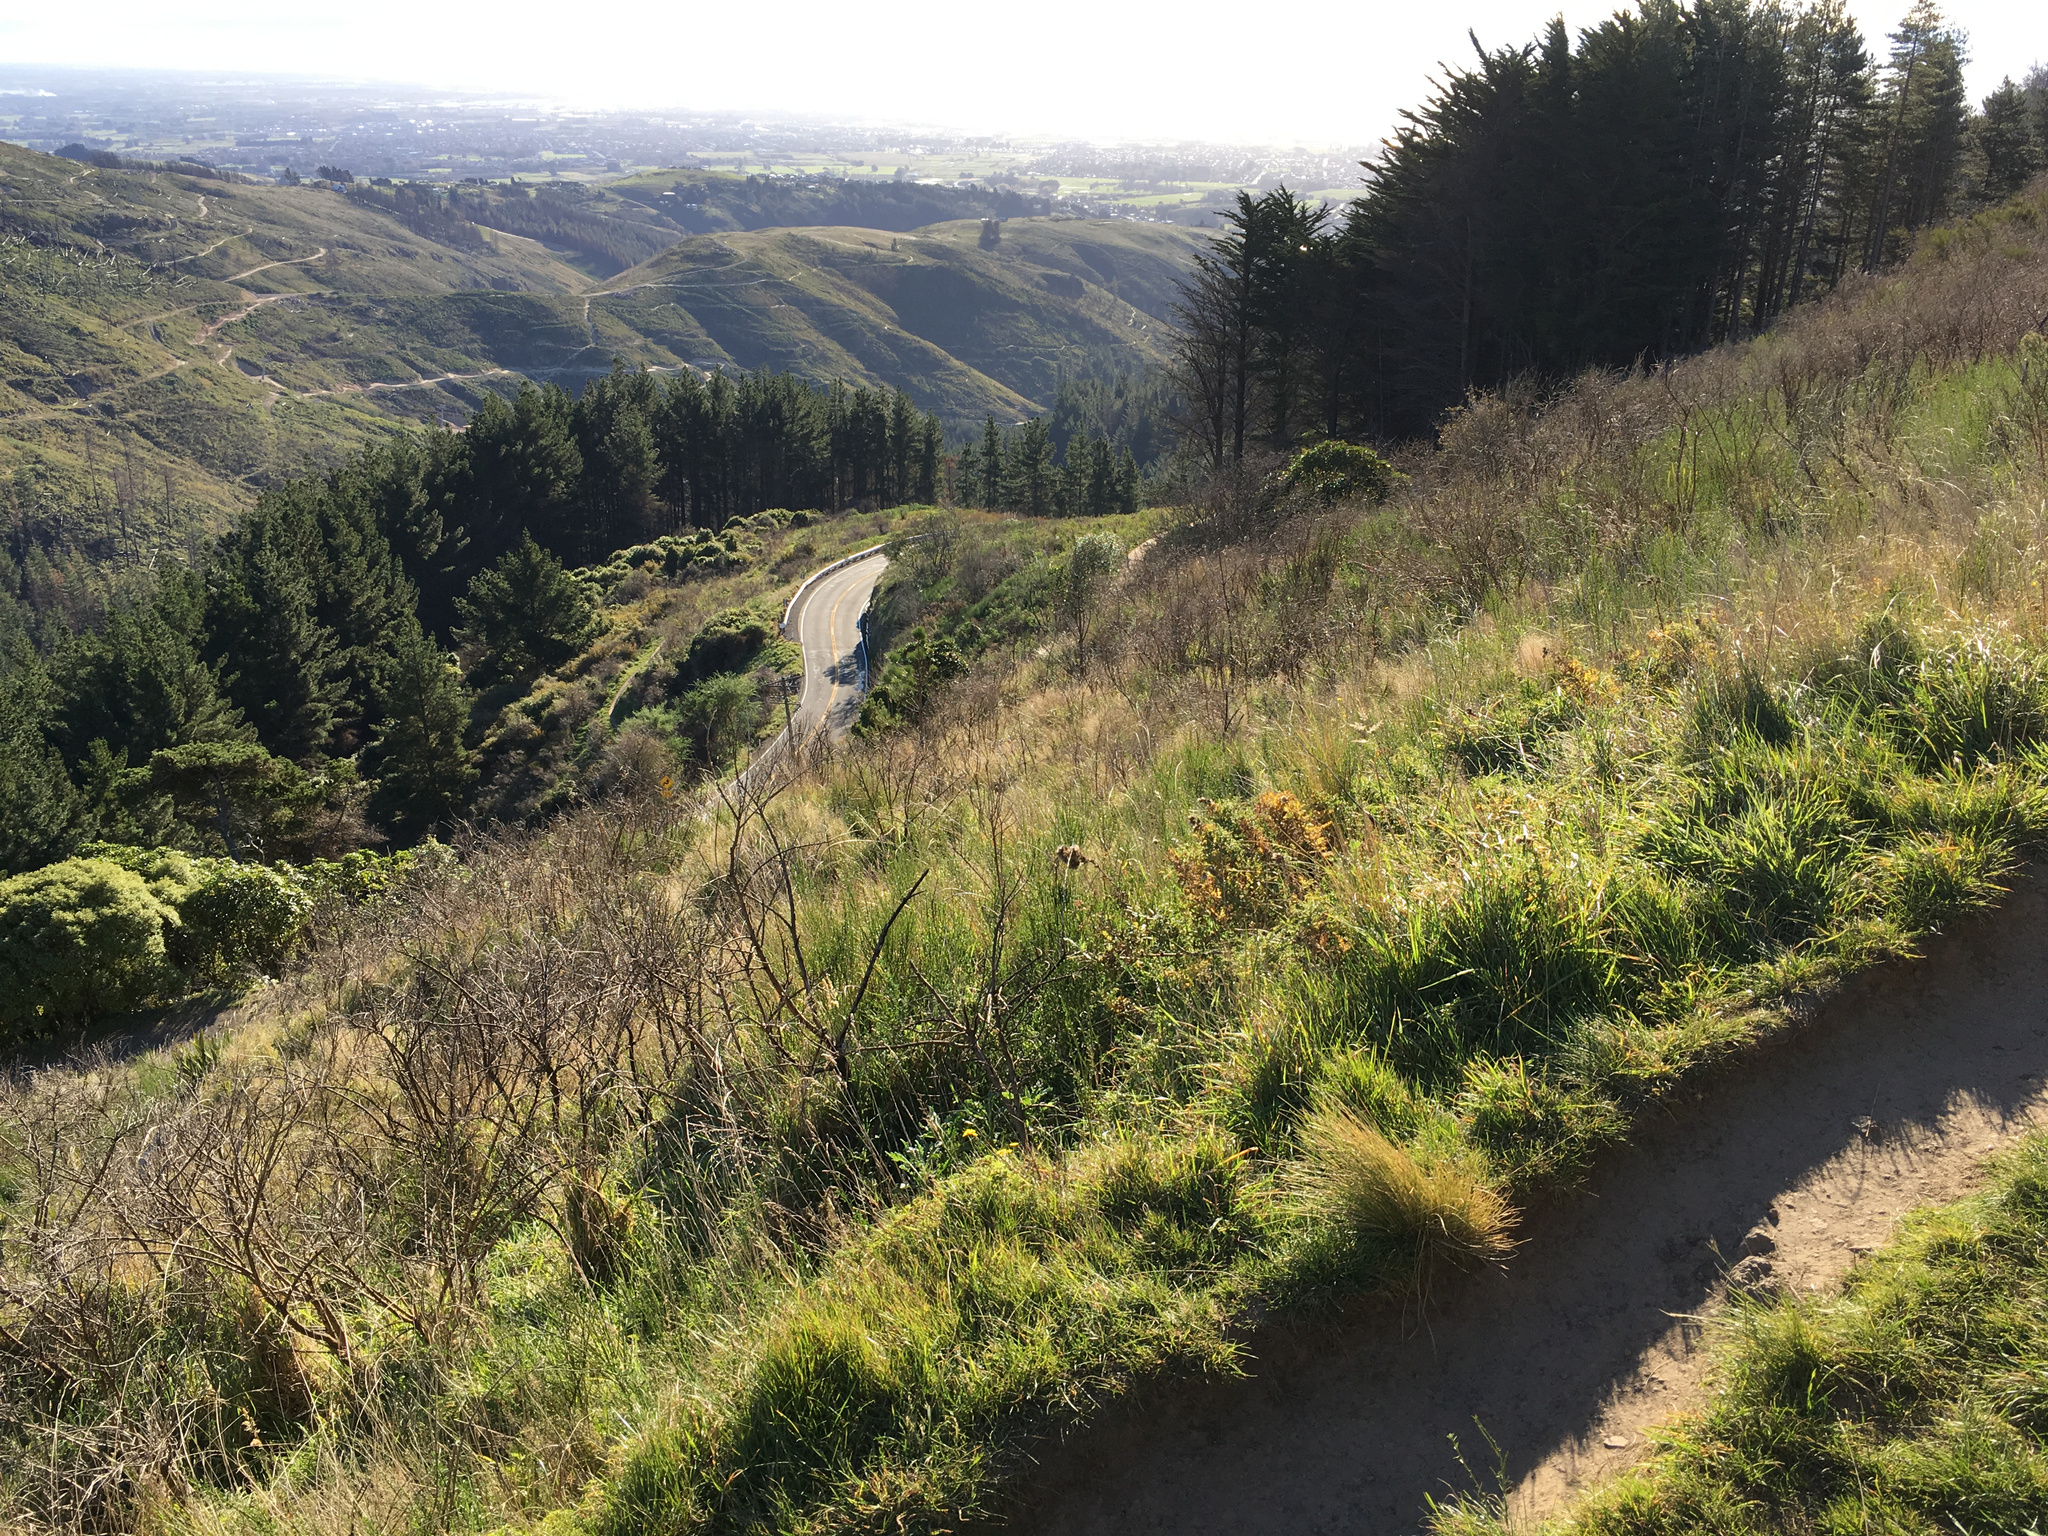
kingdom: Plantae
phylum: Tracheophyta
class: Magnoliopsida
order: Fabales
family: Fabaceae
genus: Cytisus
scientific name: Cytisus scoparius
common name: Scotch broom
